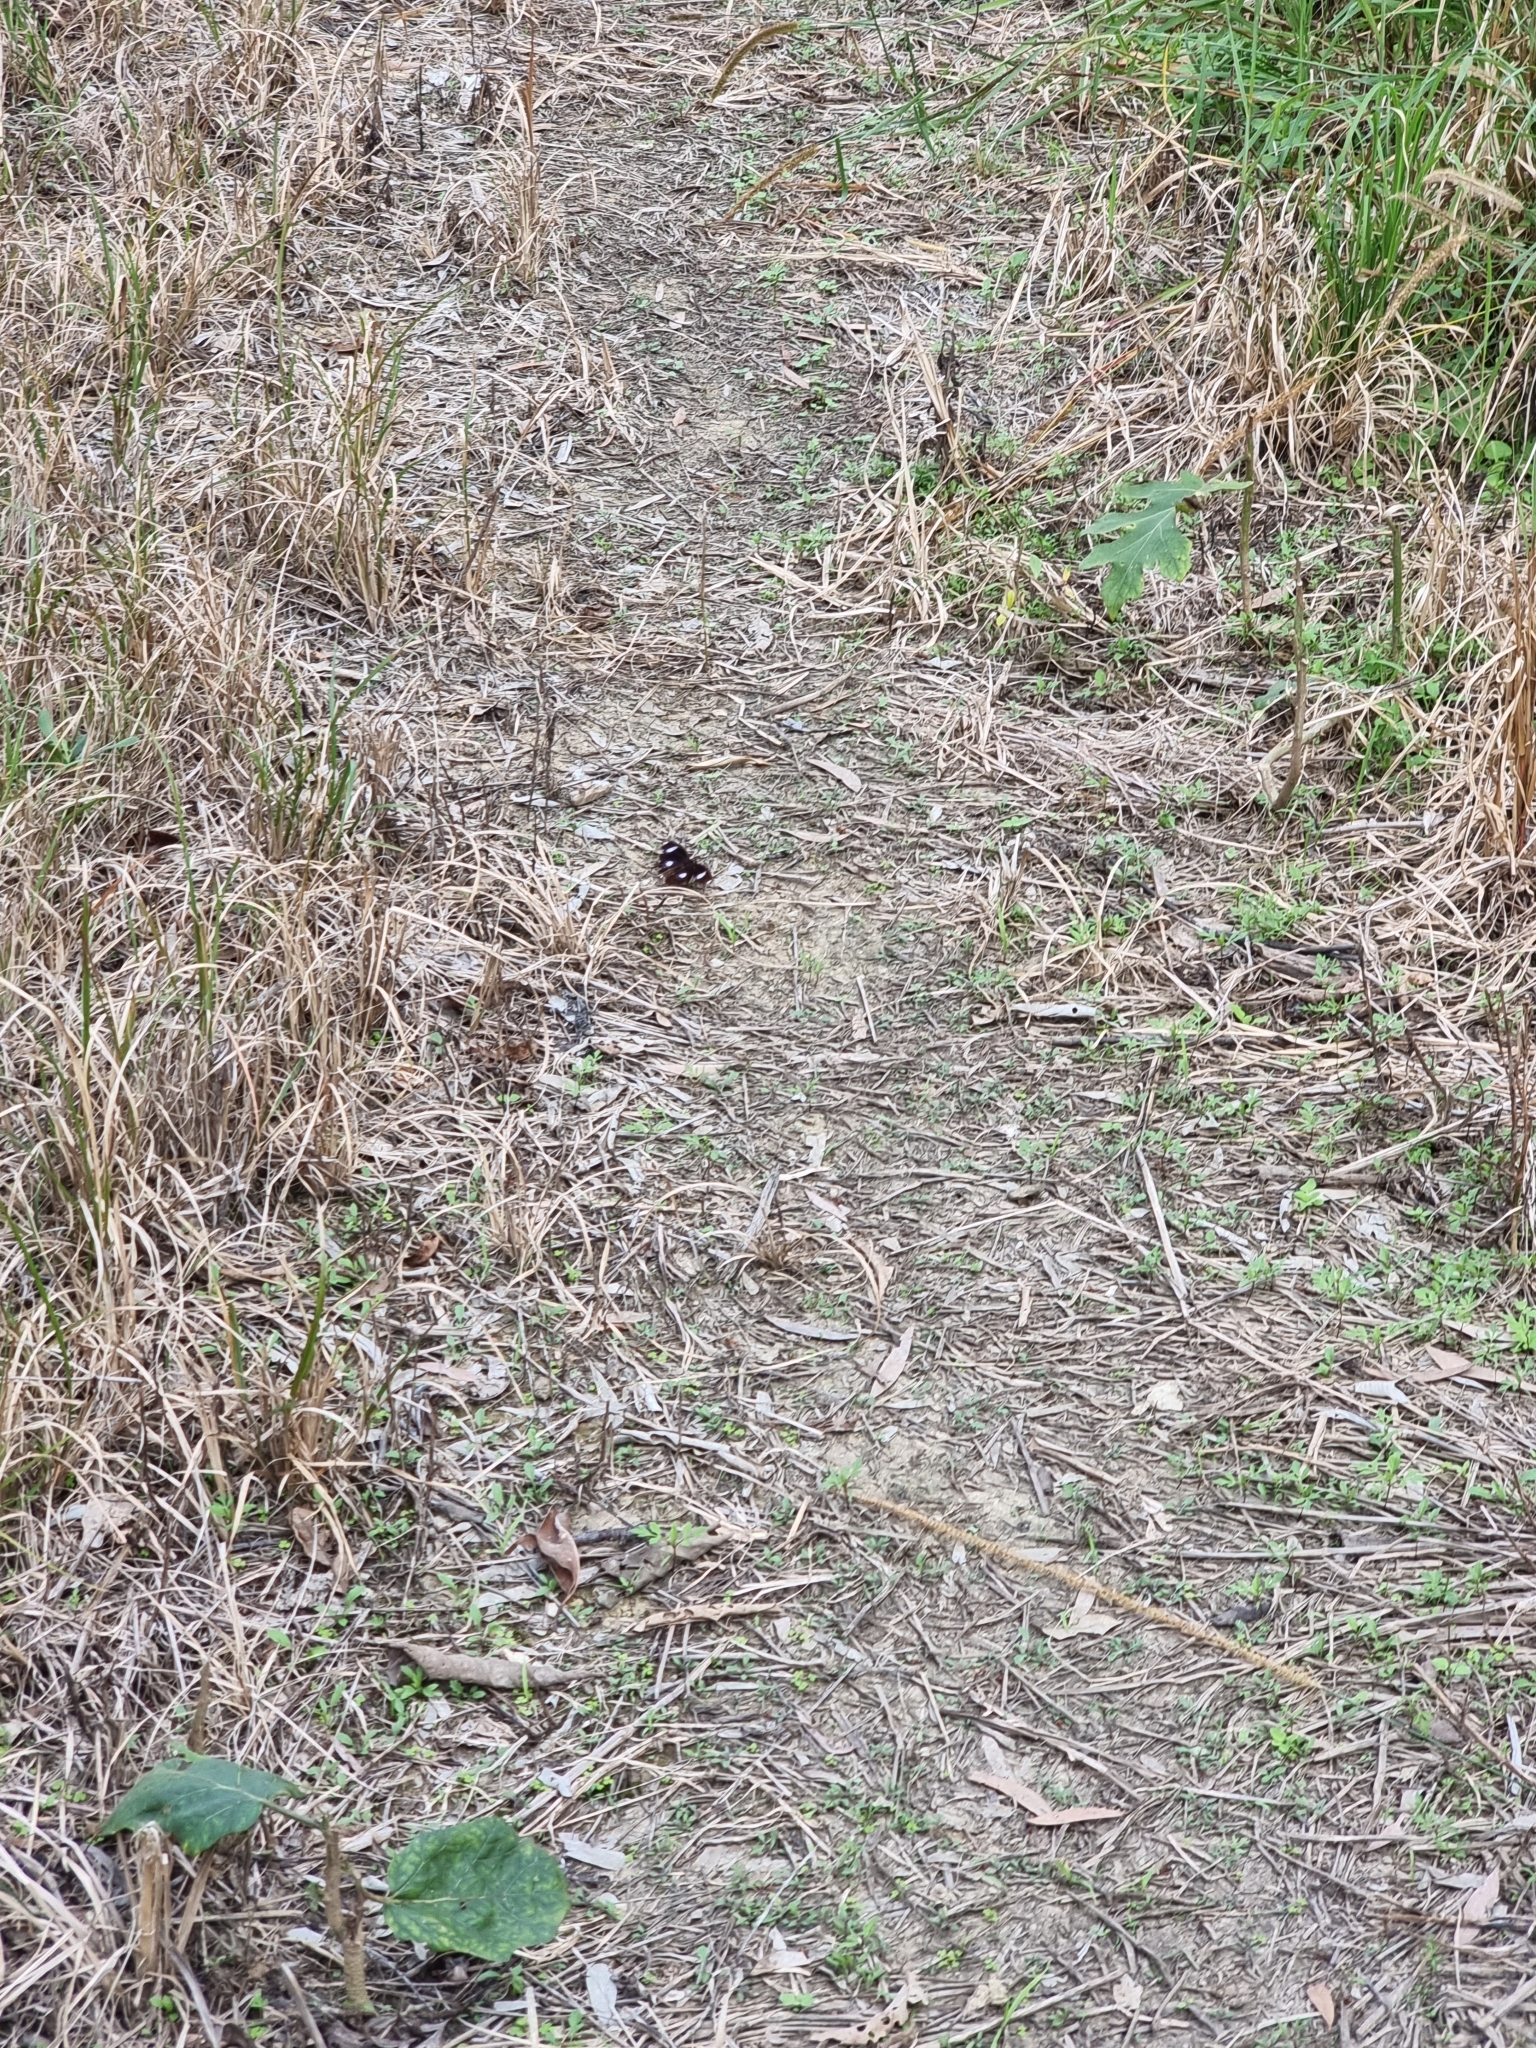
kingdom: Animalia
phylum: Arthropoda
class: Insecta
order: Lepidoptera
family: Nymphalidae
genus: Hypolimnas
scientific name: Hypolimnas bolina
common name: Great eggfly
